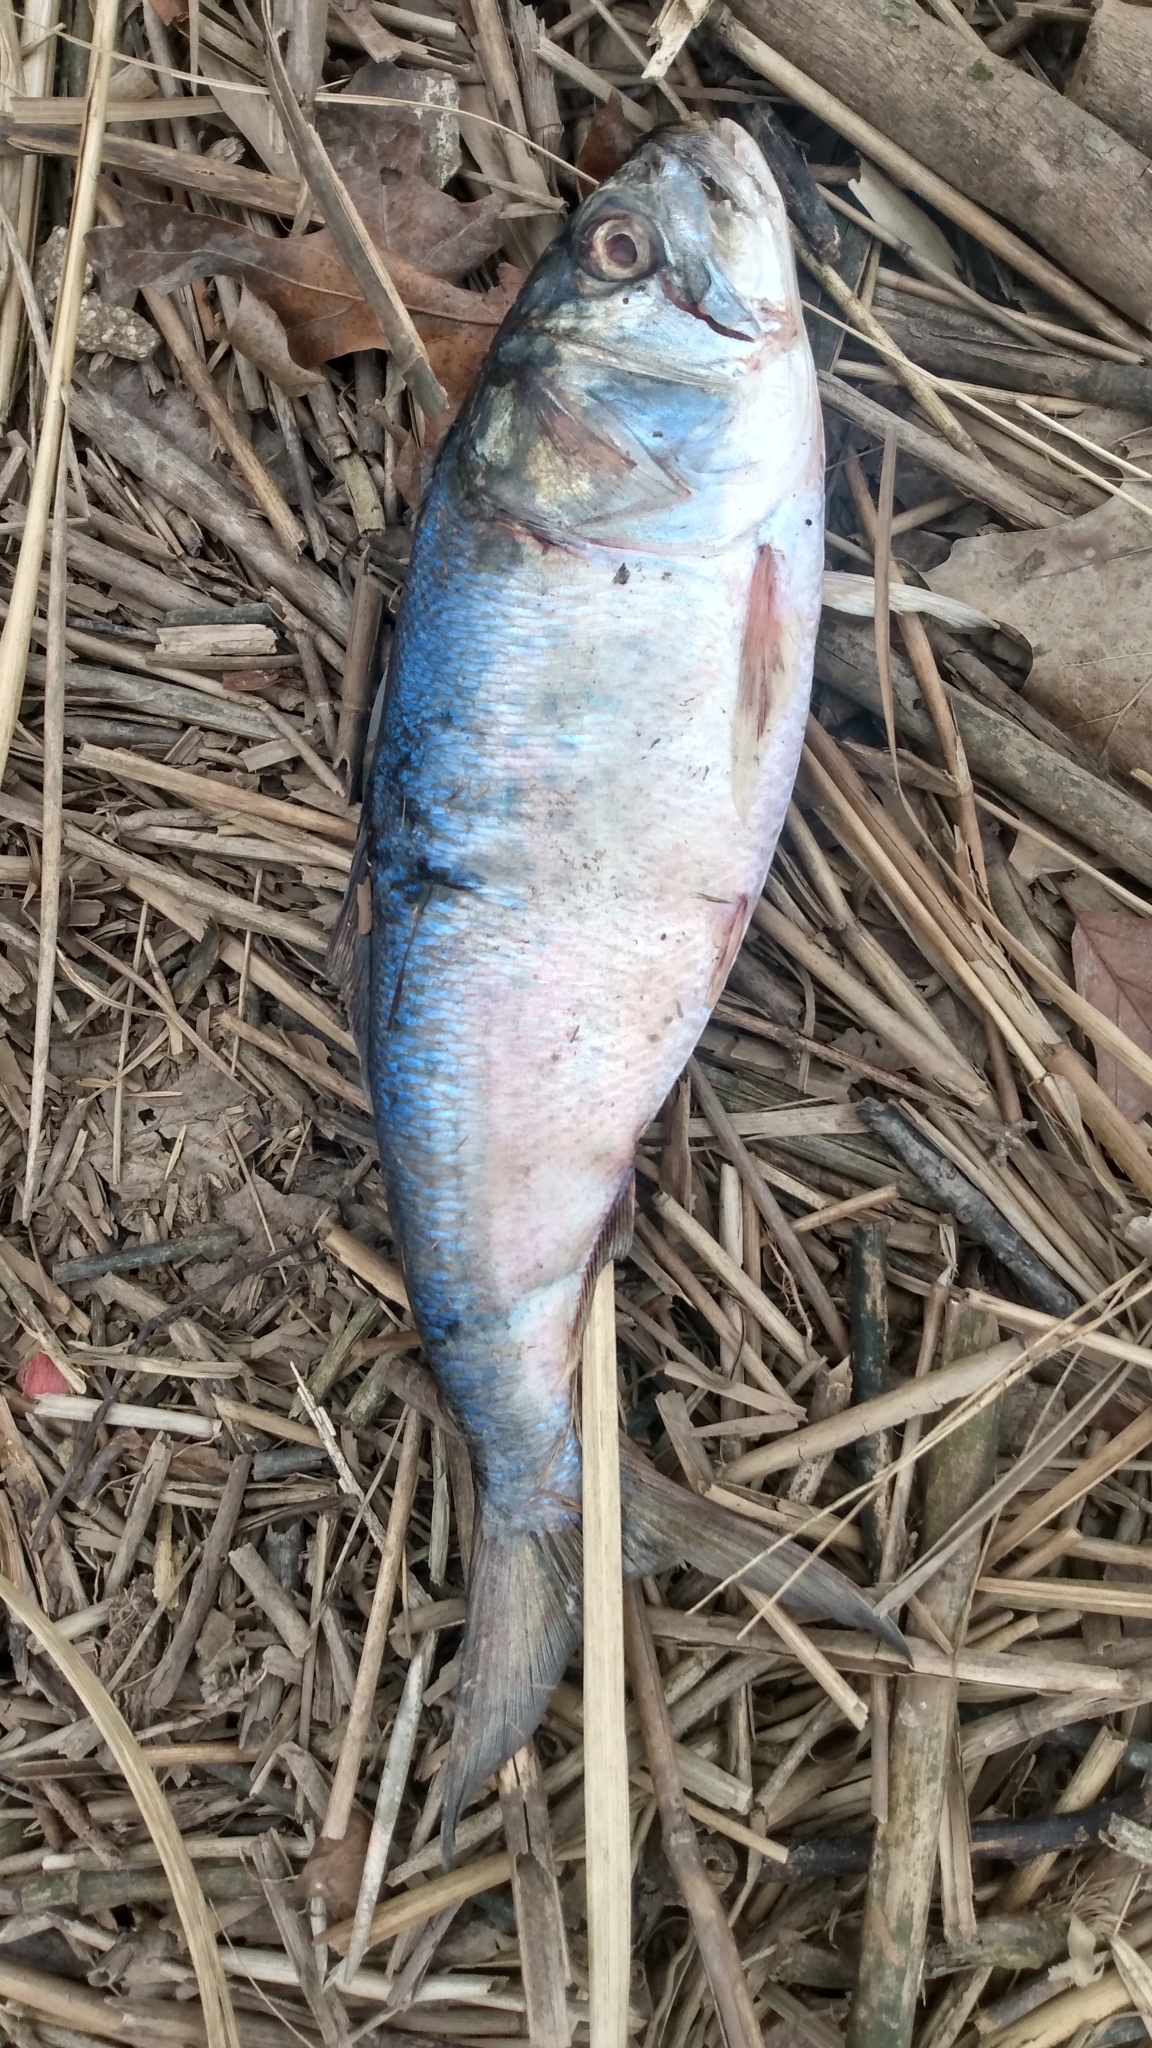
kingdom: Animalia
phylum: Chordata
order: Clupeiformes
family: Clupeidae
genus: Brevoortia
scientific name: Brevoortia tyrannus
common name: Atlantic menhaden
